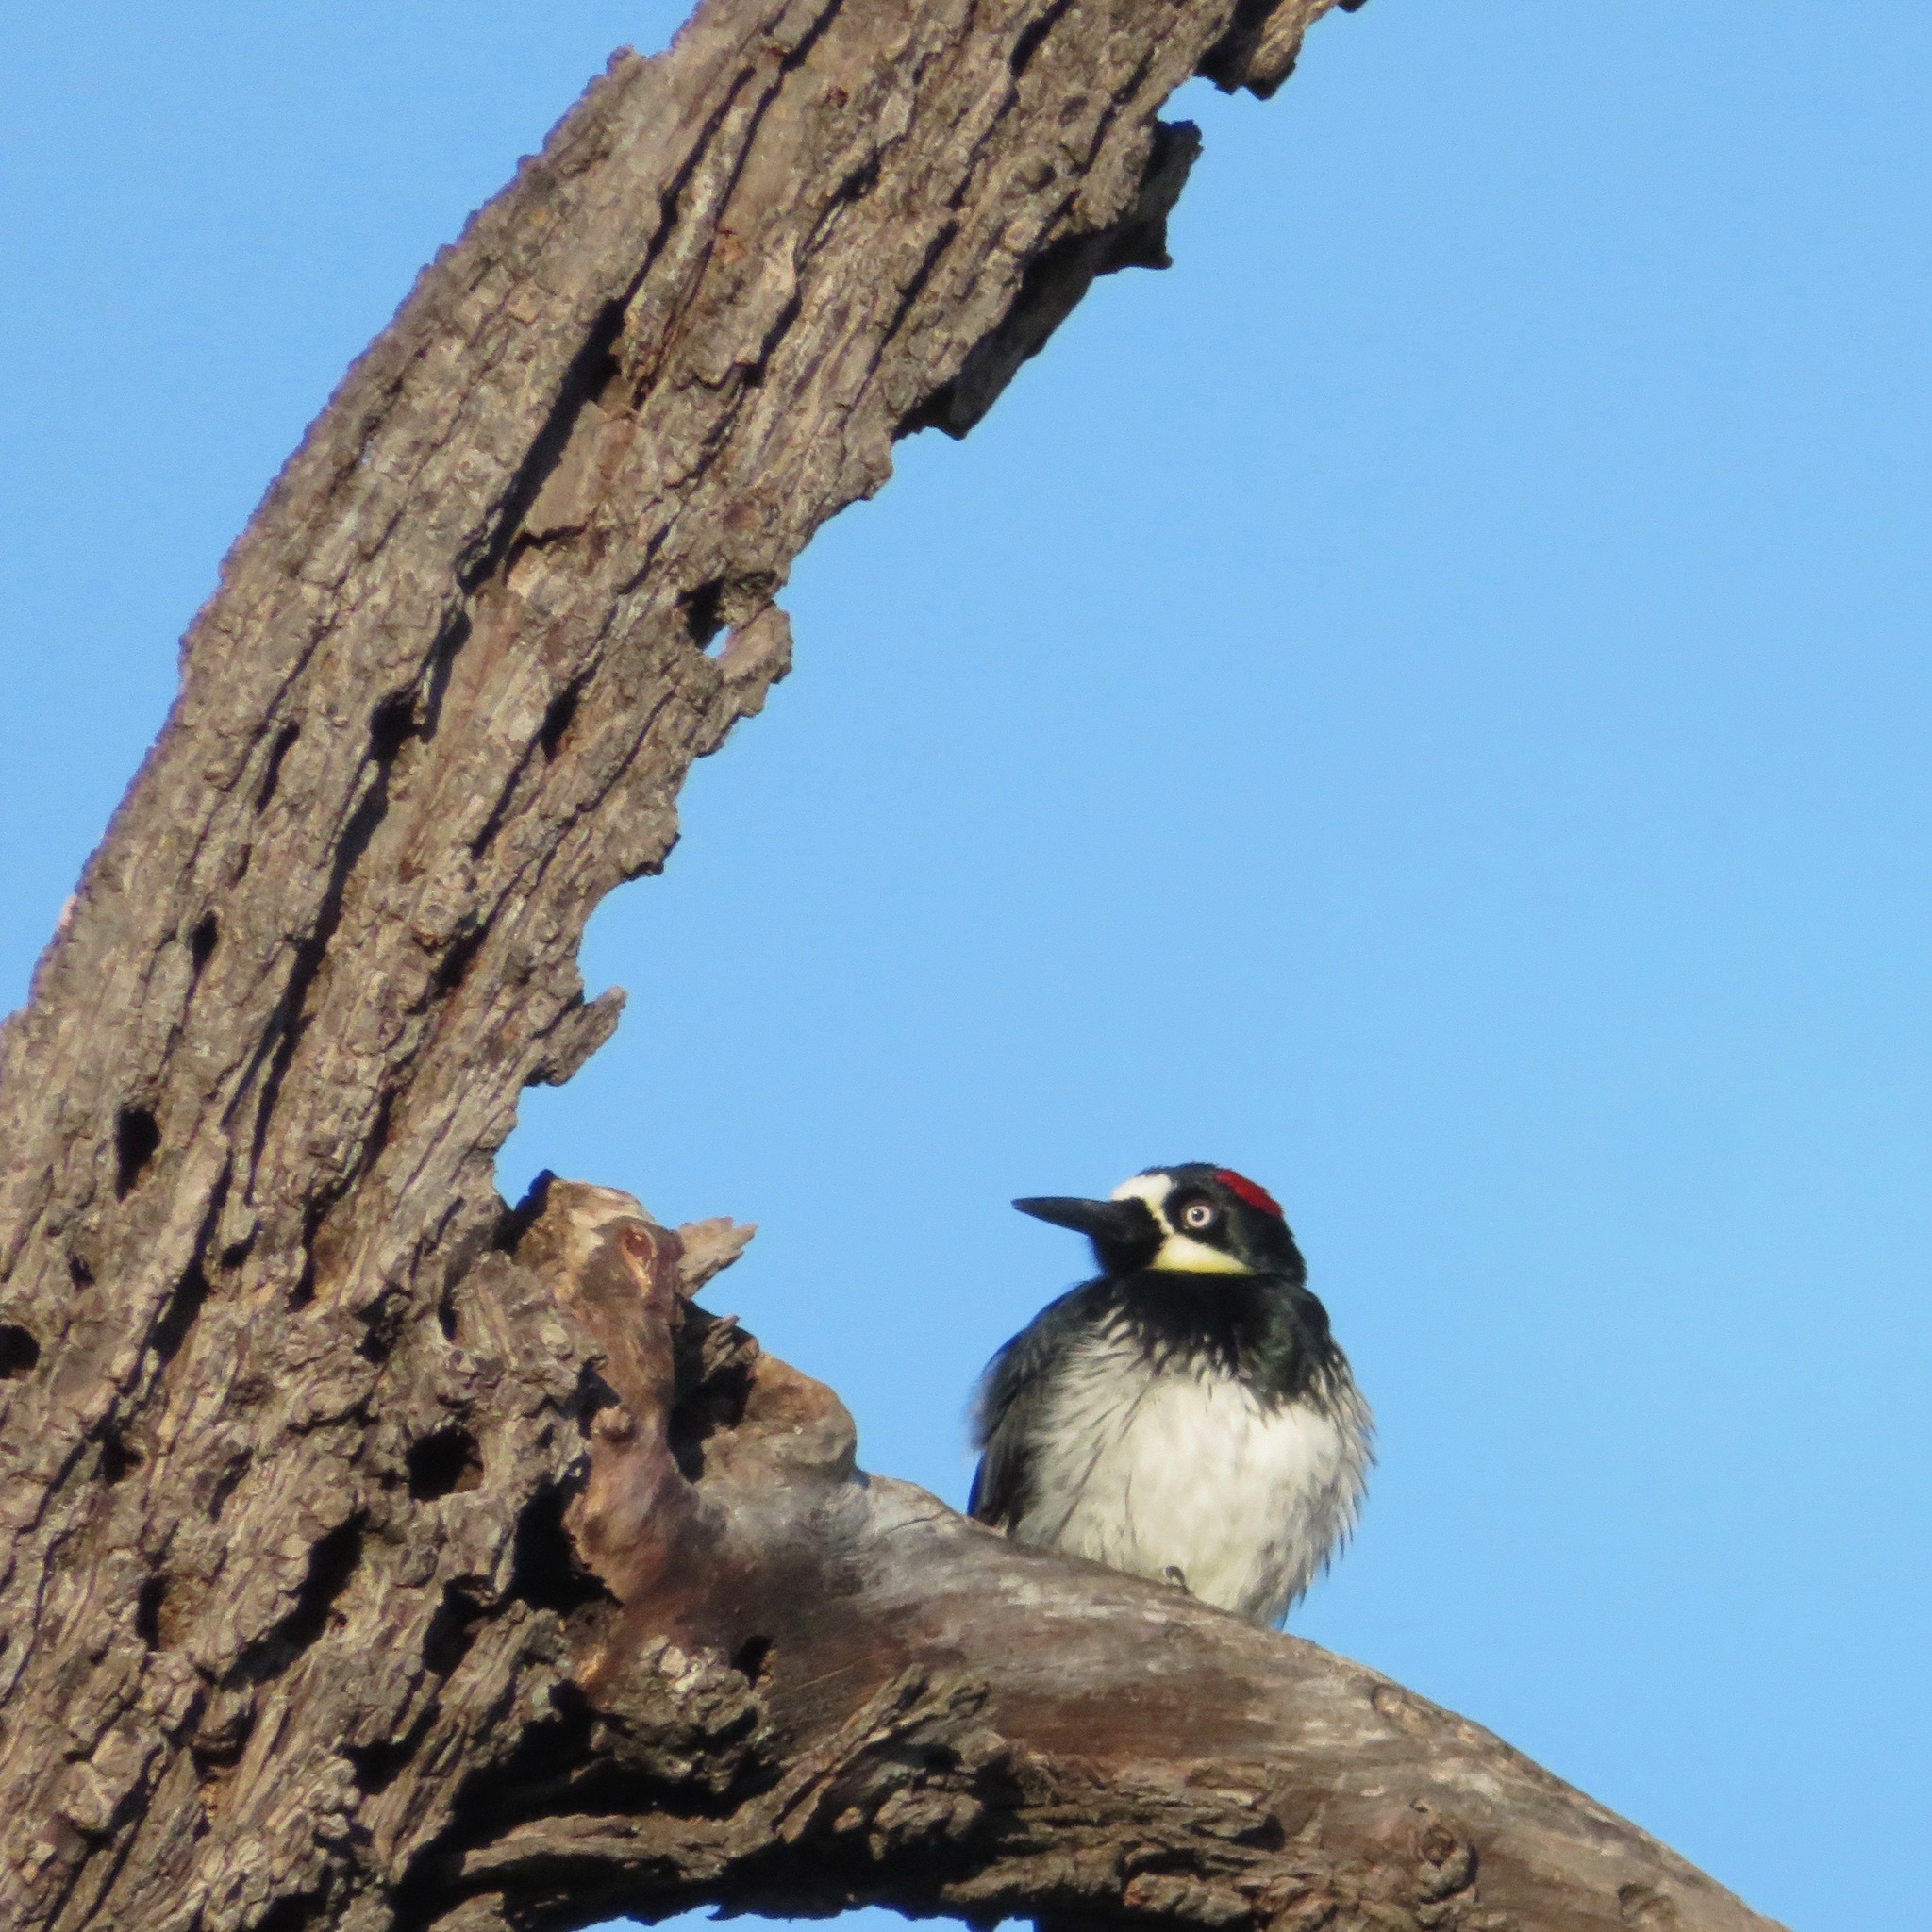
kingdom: Animalia
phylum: Chordata
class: Aves
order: Piciformes
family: Picidae
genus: Melanerpes
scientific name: Melanerpes formicivorus
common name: Acorn woodpecker
